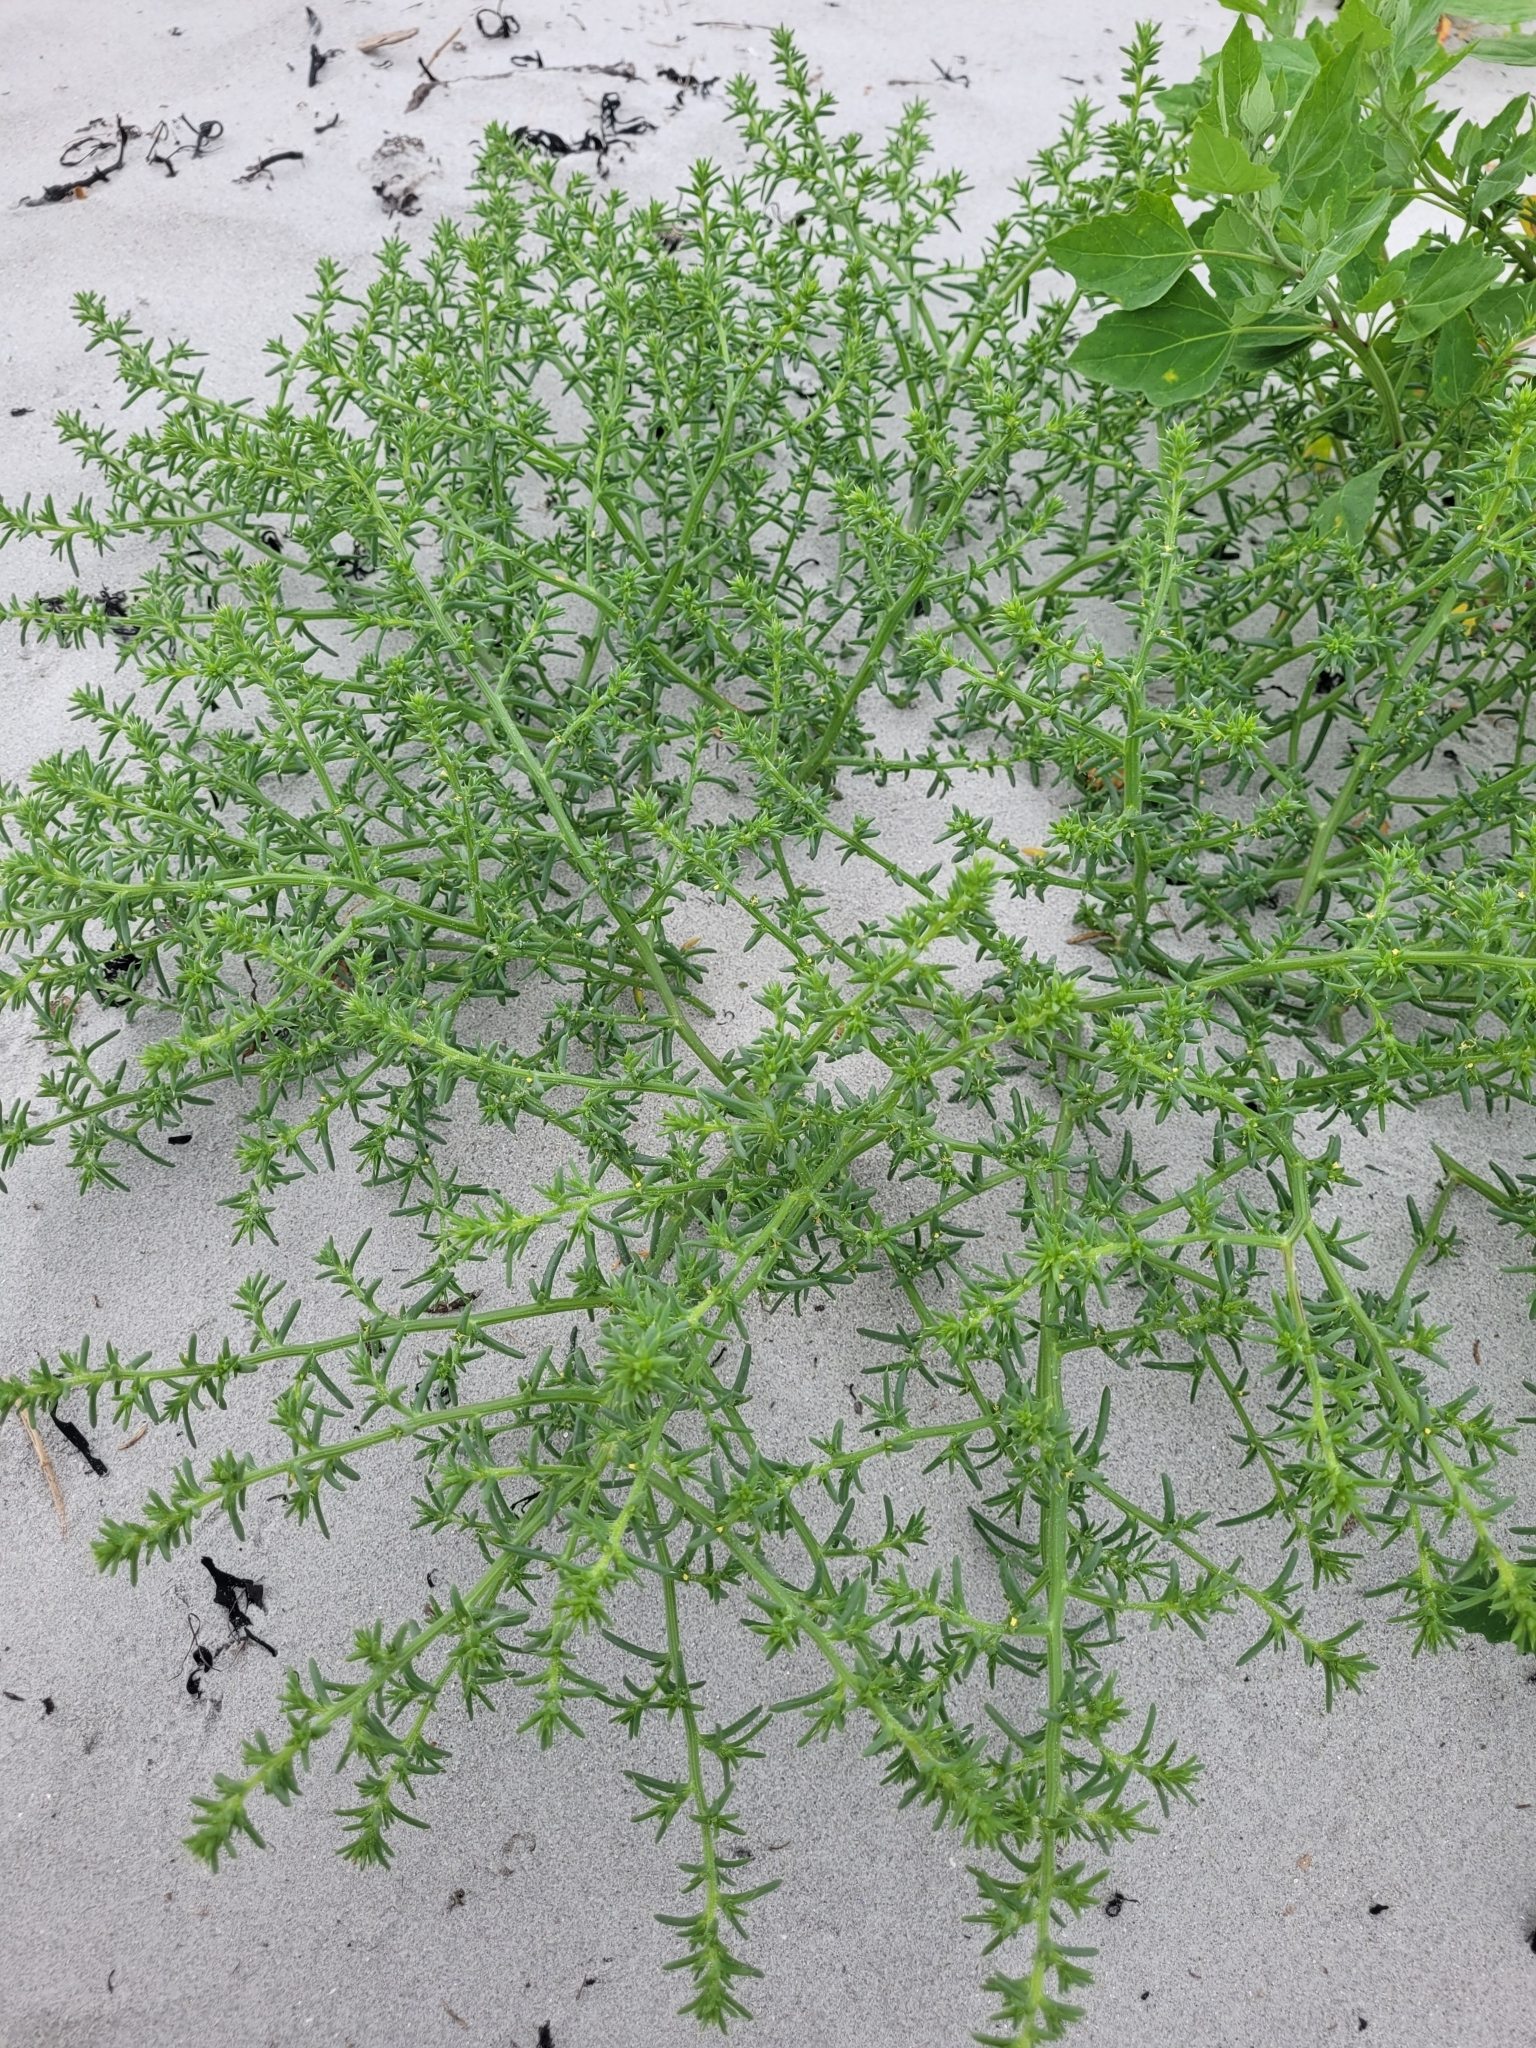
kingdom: Plantae
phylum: Tracheophyta
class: Magnoliopsida
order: Caryophyllales
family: Amaranthaceae
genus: Salsola
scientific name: Salsola kali
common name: Saltwort
